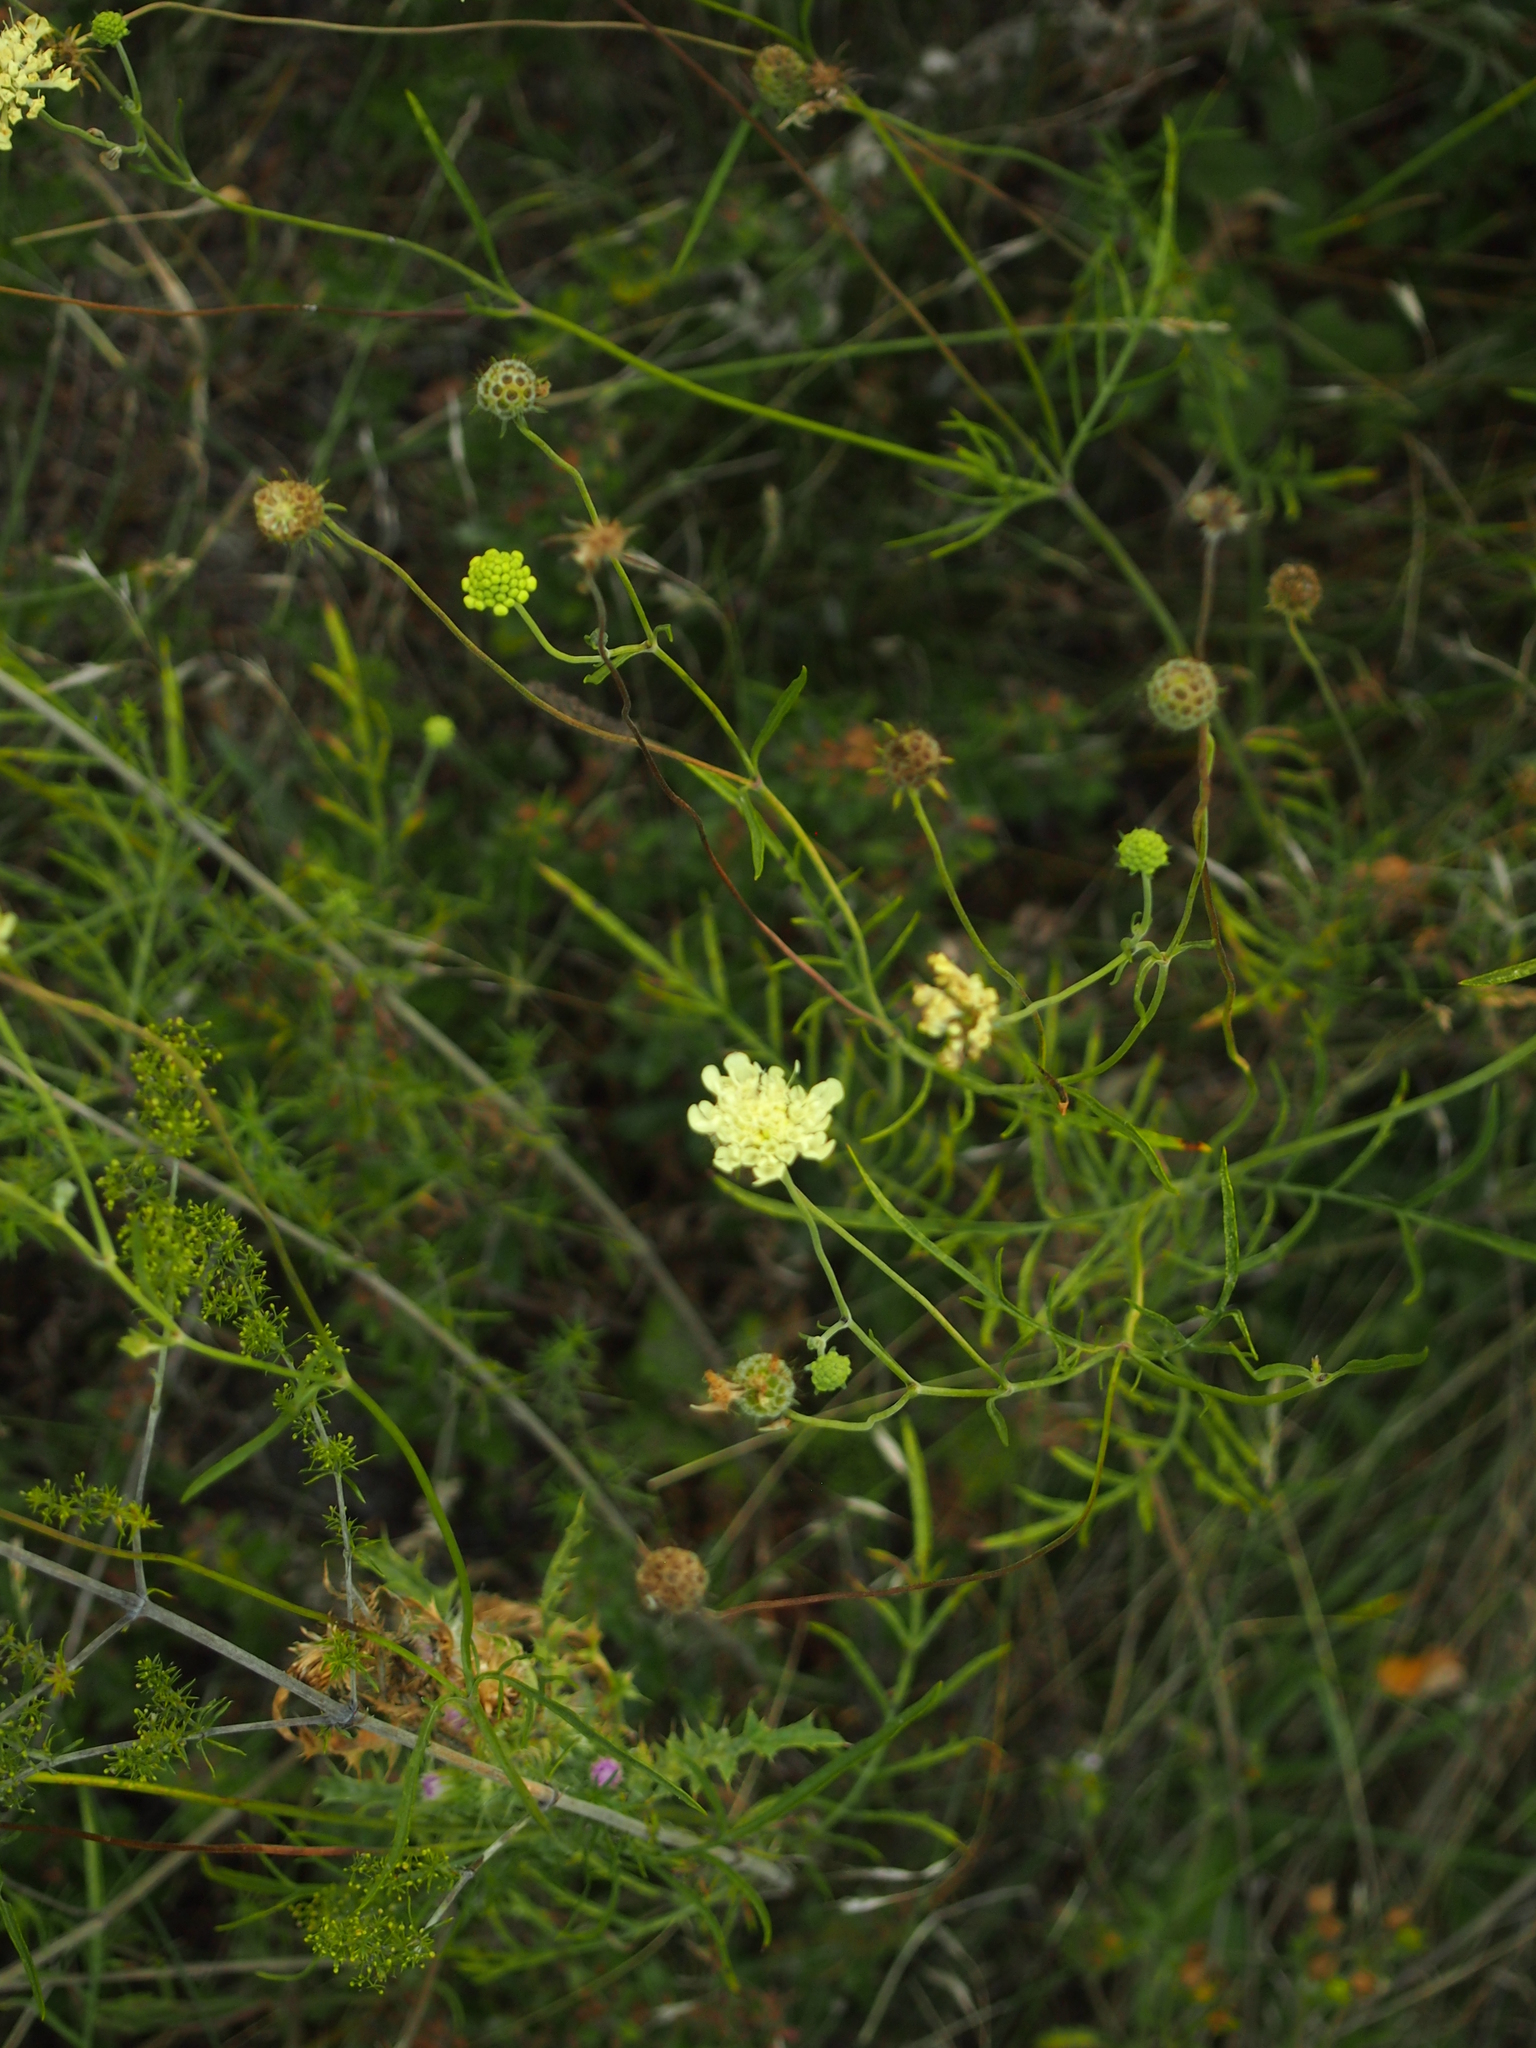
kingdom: Plantae
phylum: Tracheophyta
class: Magnoliopsida
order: Dipsacales
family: Caprifoliaceae
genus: Scabiosa
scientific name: Scabiosa ochroleuca
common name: Cream pincushions
